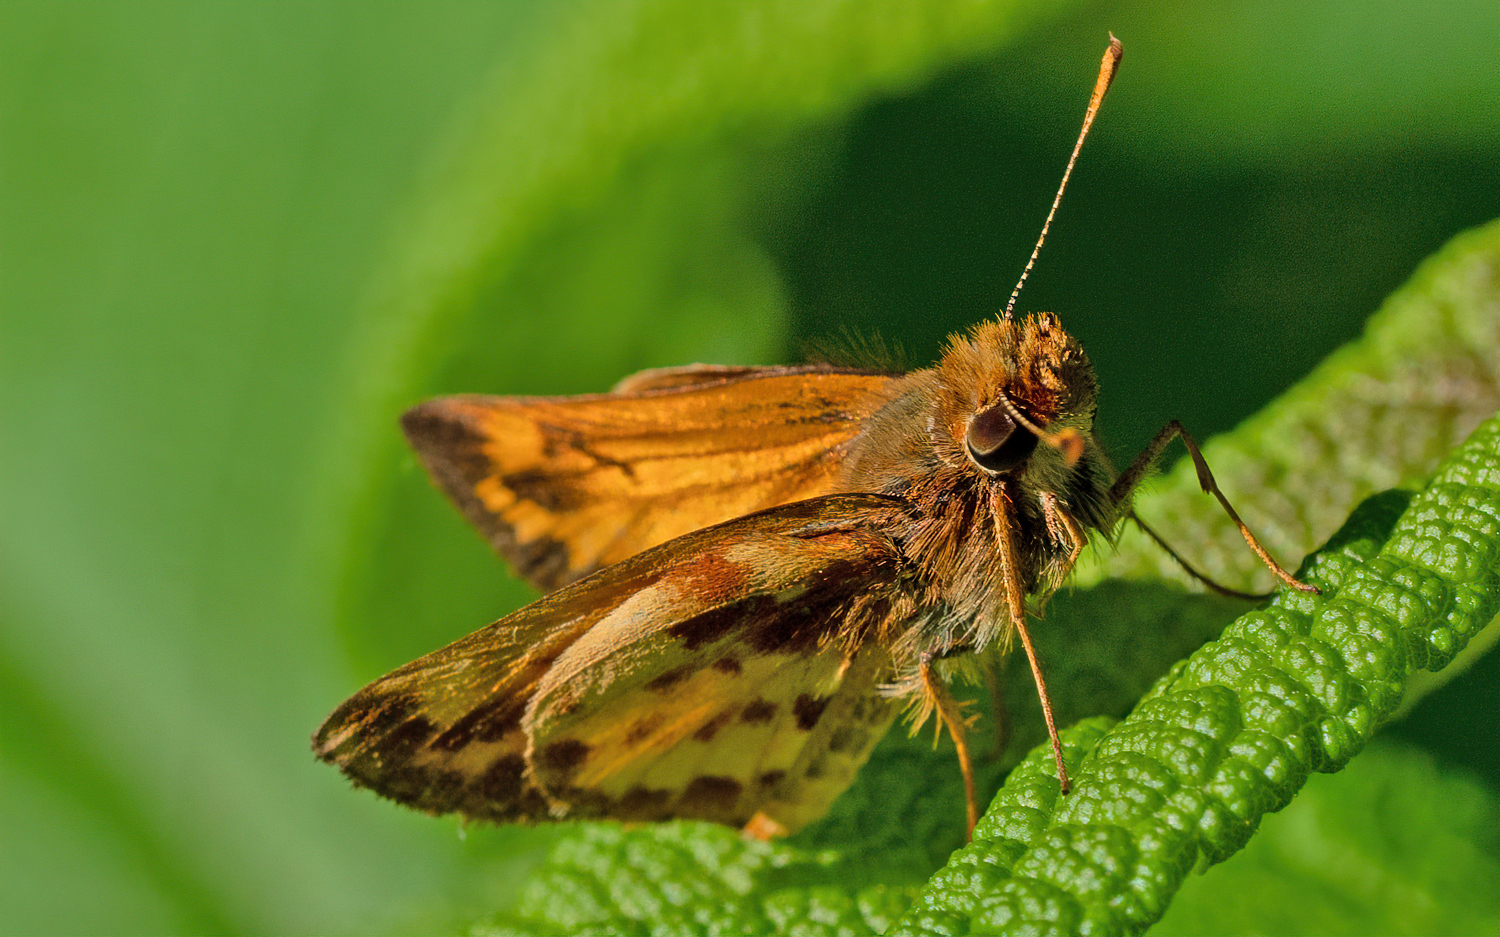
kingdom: Animalia
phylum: Arthropoda
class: Insecta
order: Lepidoptera
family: Hesperiidae
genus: Lon
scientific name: Lon zabulon
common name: Zabulon skipper
